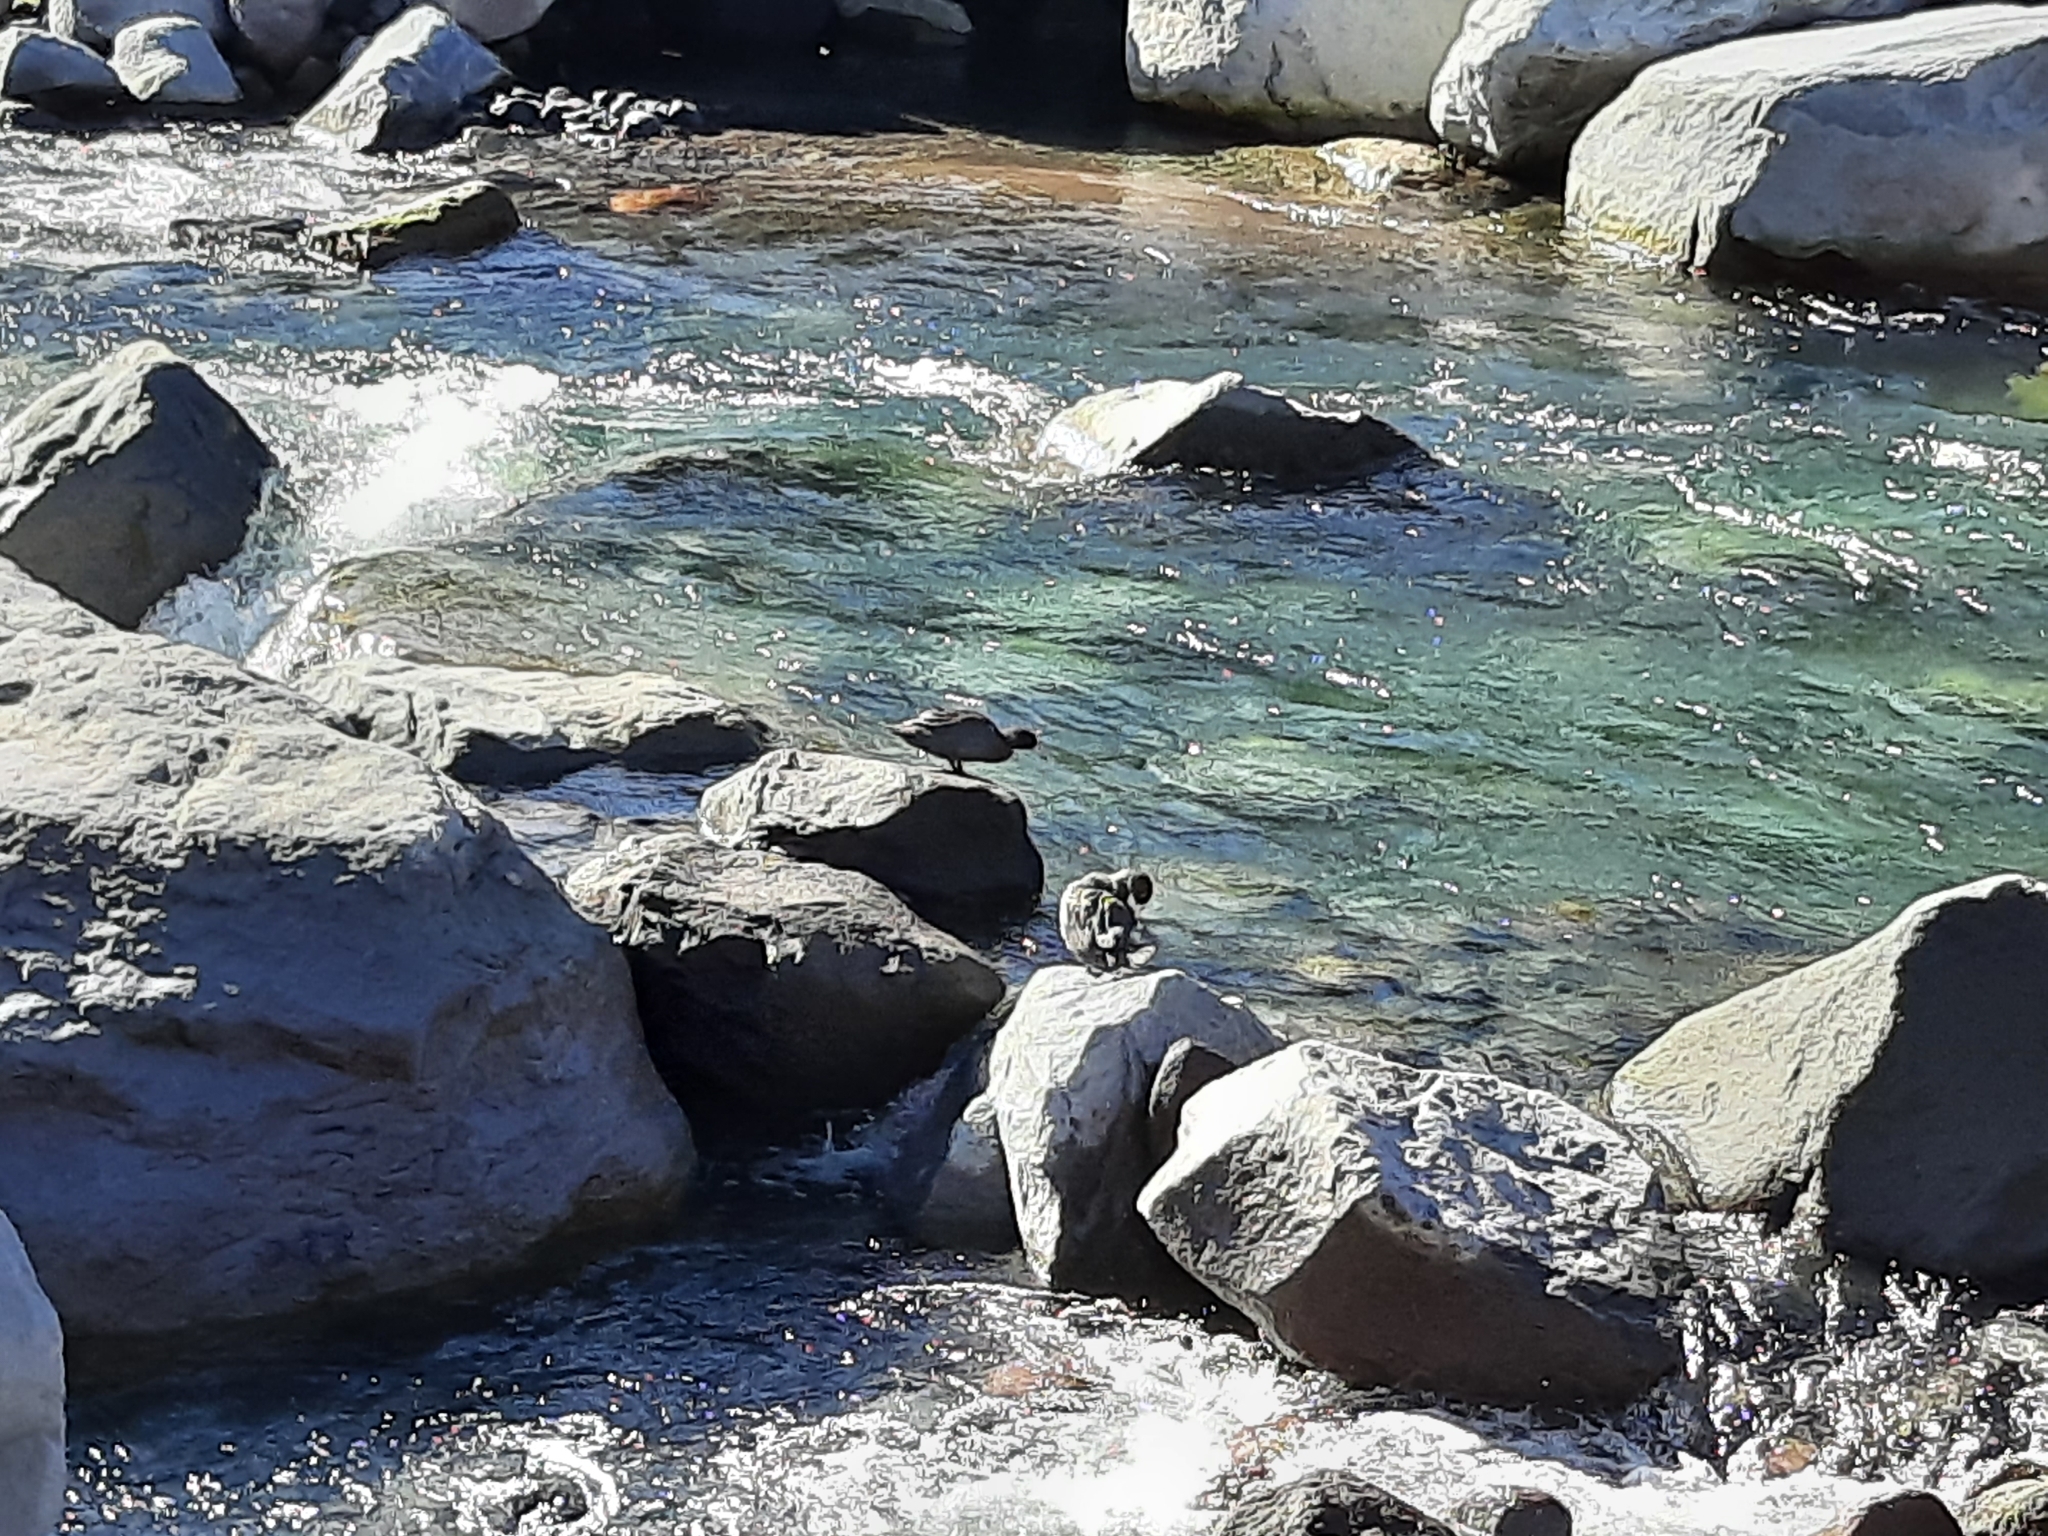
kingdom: Animalia
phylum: Chordata
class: Aves
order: Anseriformes
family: Anatidae
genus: Hymenolaimus
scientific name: Hymenolaimus malacorhynchos
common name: Blue duck
